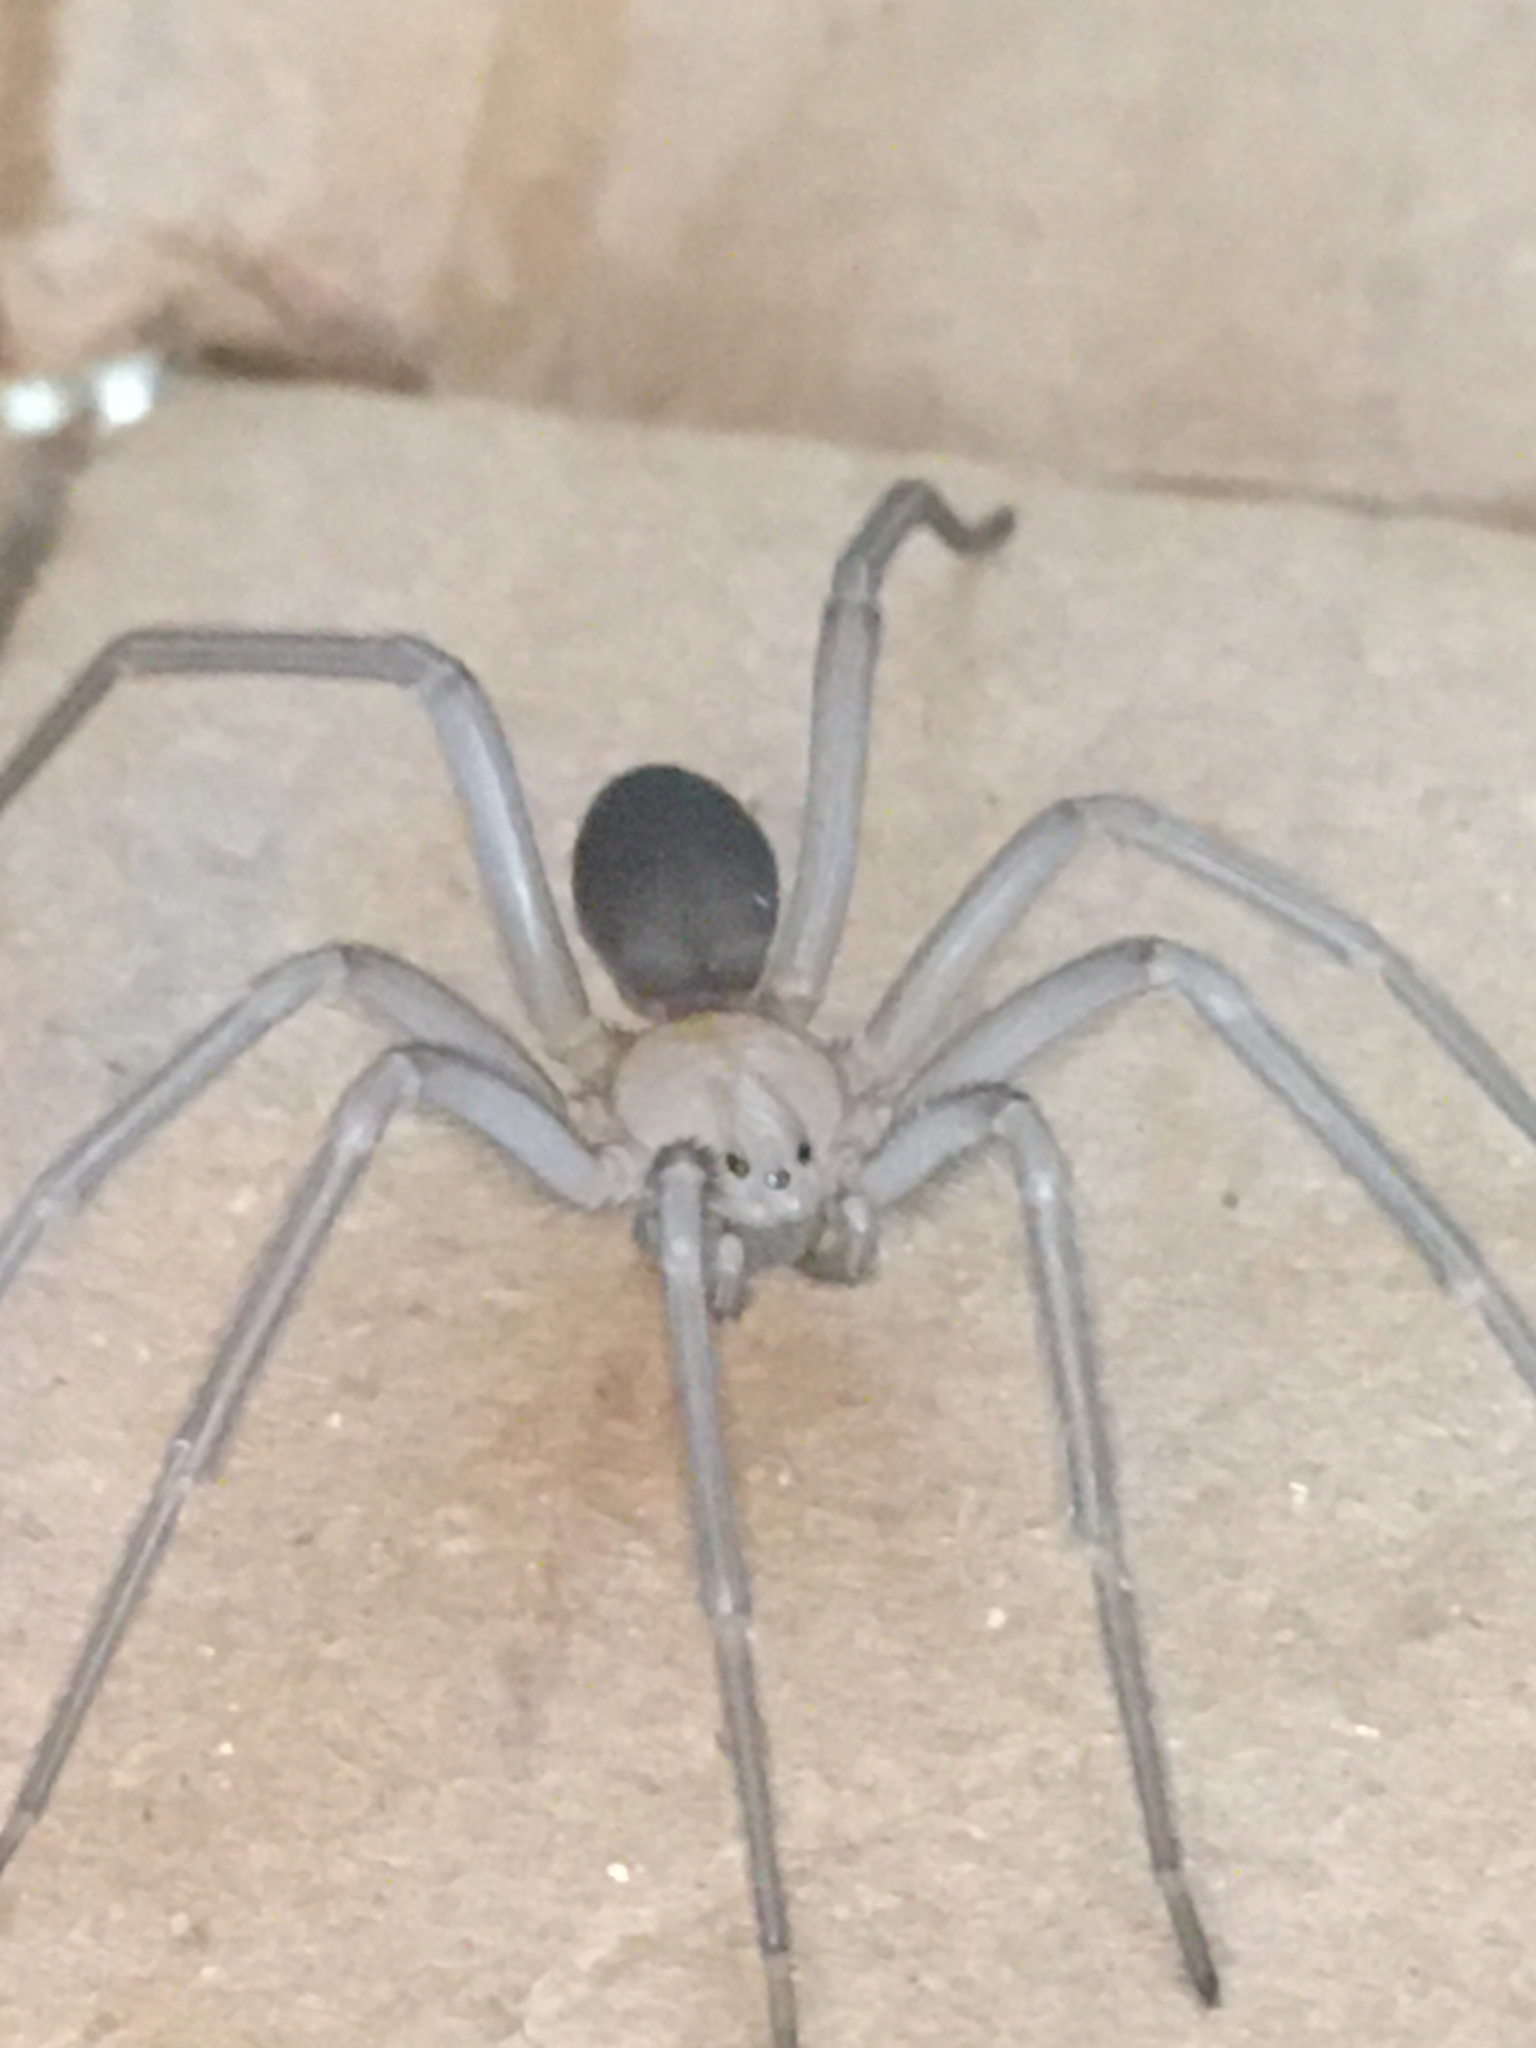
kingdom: Animalia
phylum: Arthropoda
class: Arachnida
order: Araneae
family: Sicariidae
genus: Loxosceles
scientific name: Loxosceles laeta
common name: Chilean recluse spider
